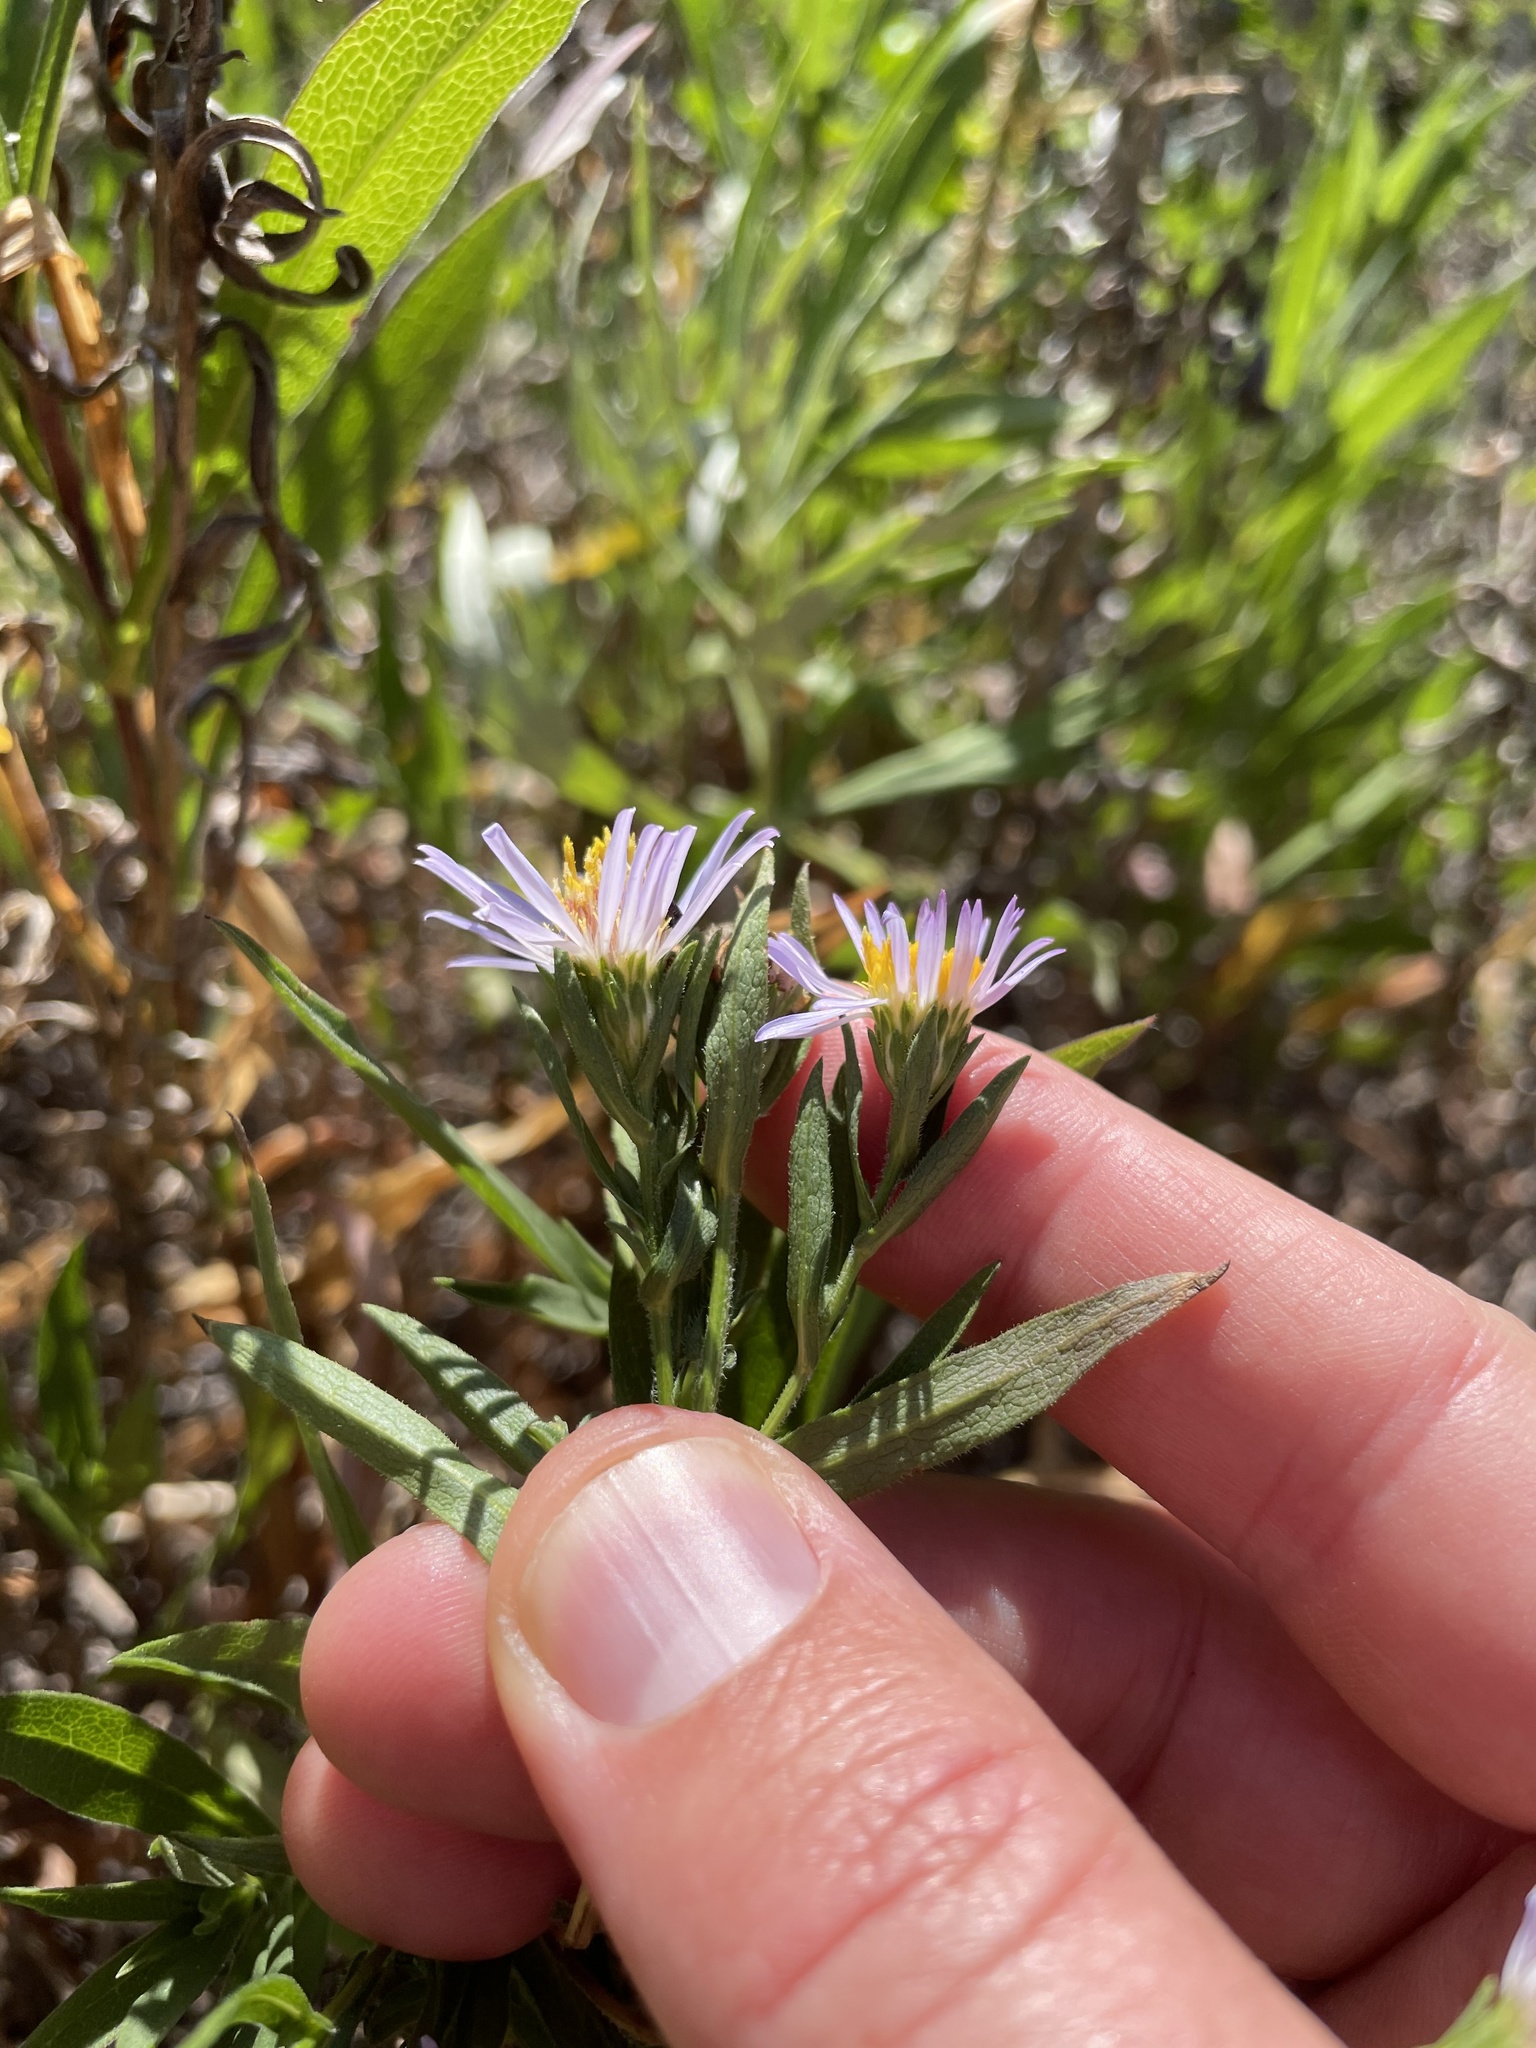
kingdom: Plantae
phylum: Tracheophyta
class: Magnoliopsida
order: Asterales
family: Asteraceae
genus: Symphyotrichum
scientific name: Symphyotrichum chilense
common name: Pacific aster
